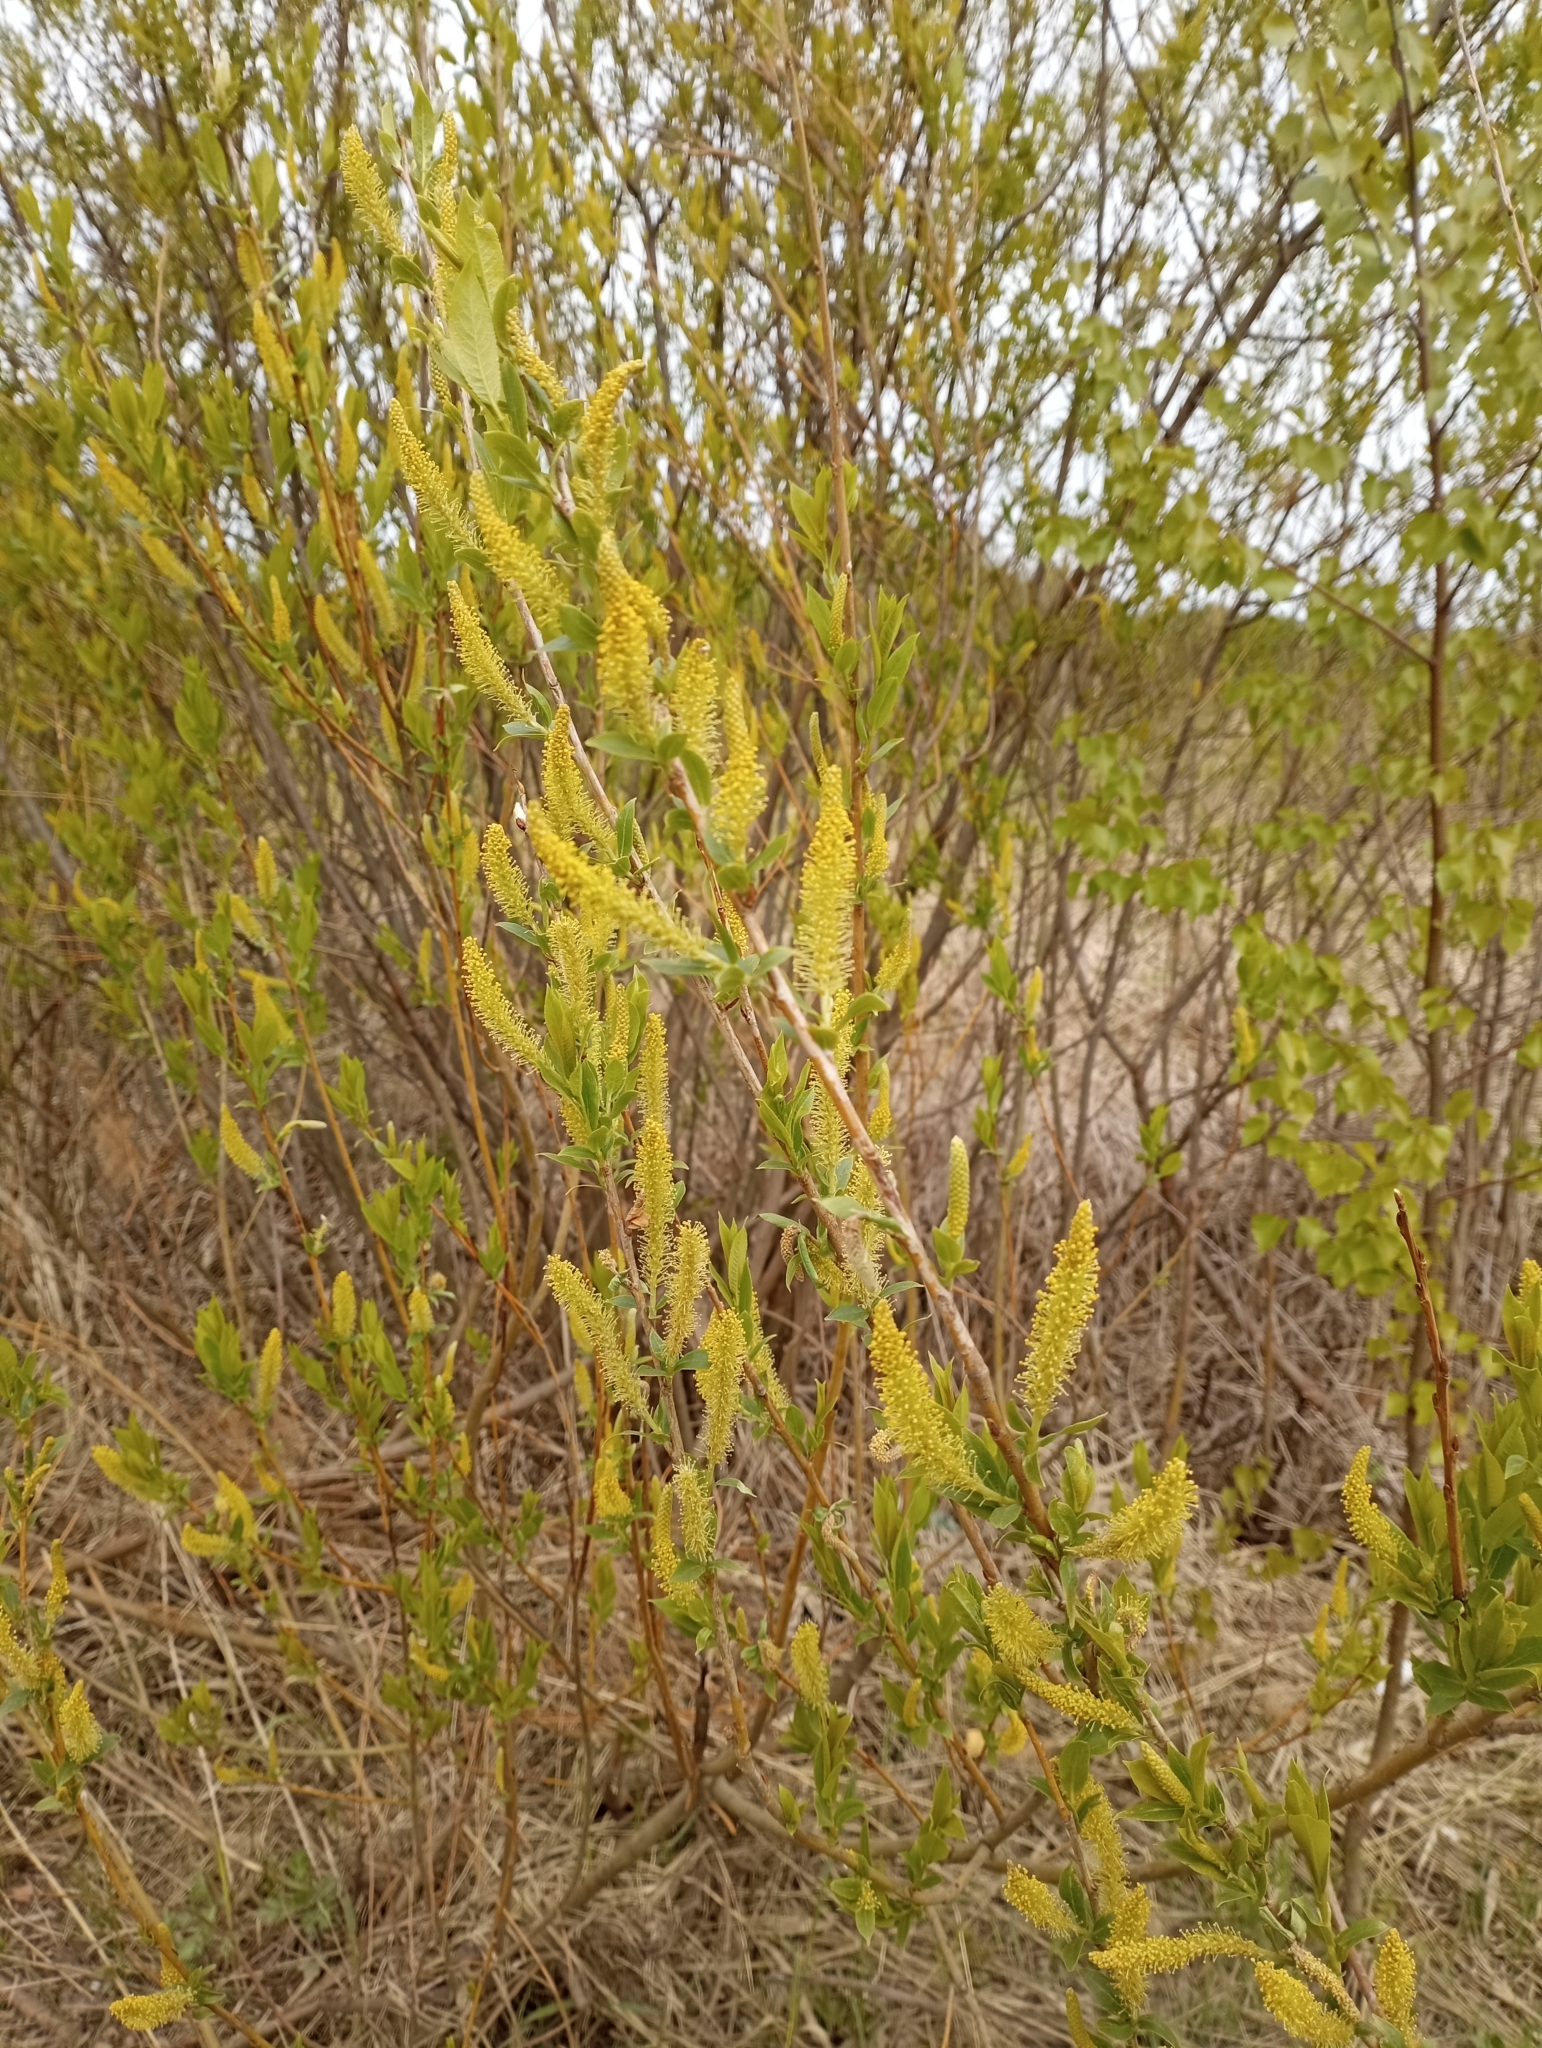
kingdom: Plantae
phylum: Tracheophyta
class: Magnoliopsida
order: Malpighiales
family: Salicaceae
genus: Salix
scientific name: Salix triandra
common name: Almond willow
